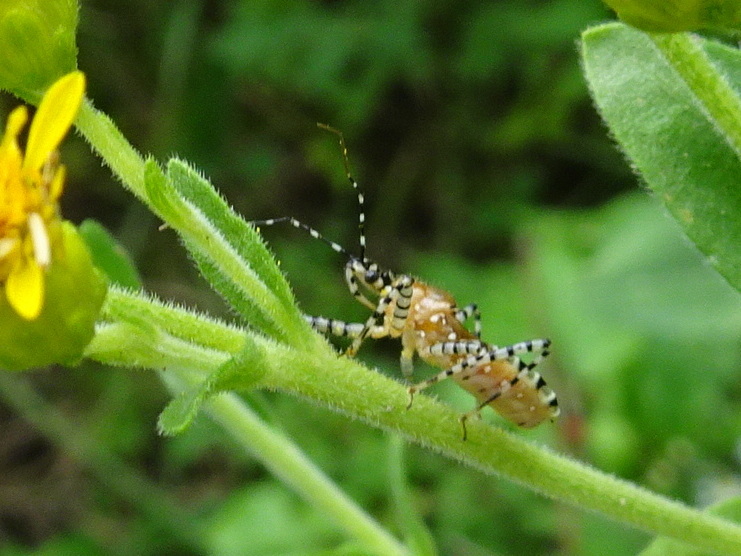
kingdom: Animalia
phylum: Arthropoda
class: Insecta
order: Hemiptera
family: Reduviidae
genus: Pselliopus
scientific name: Pselliopus cinctus
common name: Ringed assassin bug
